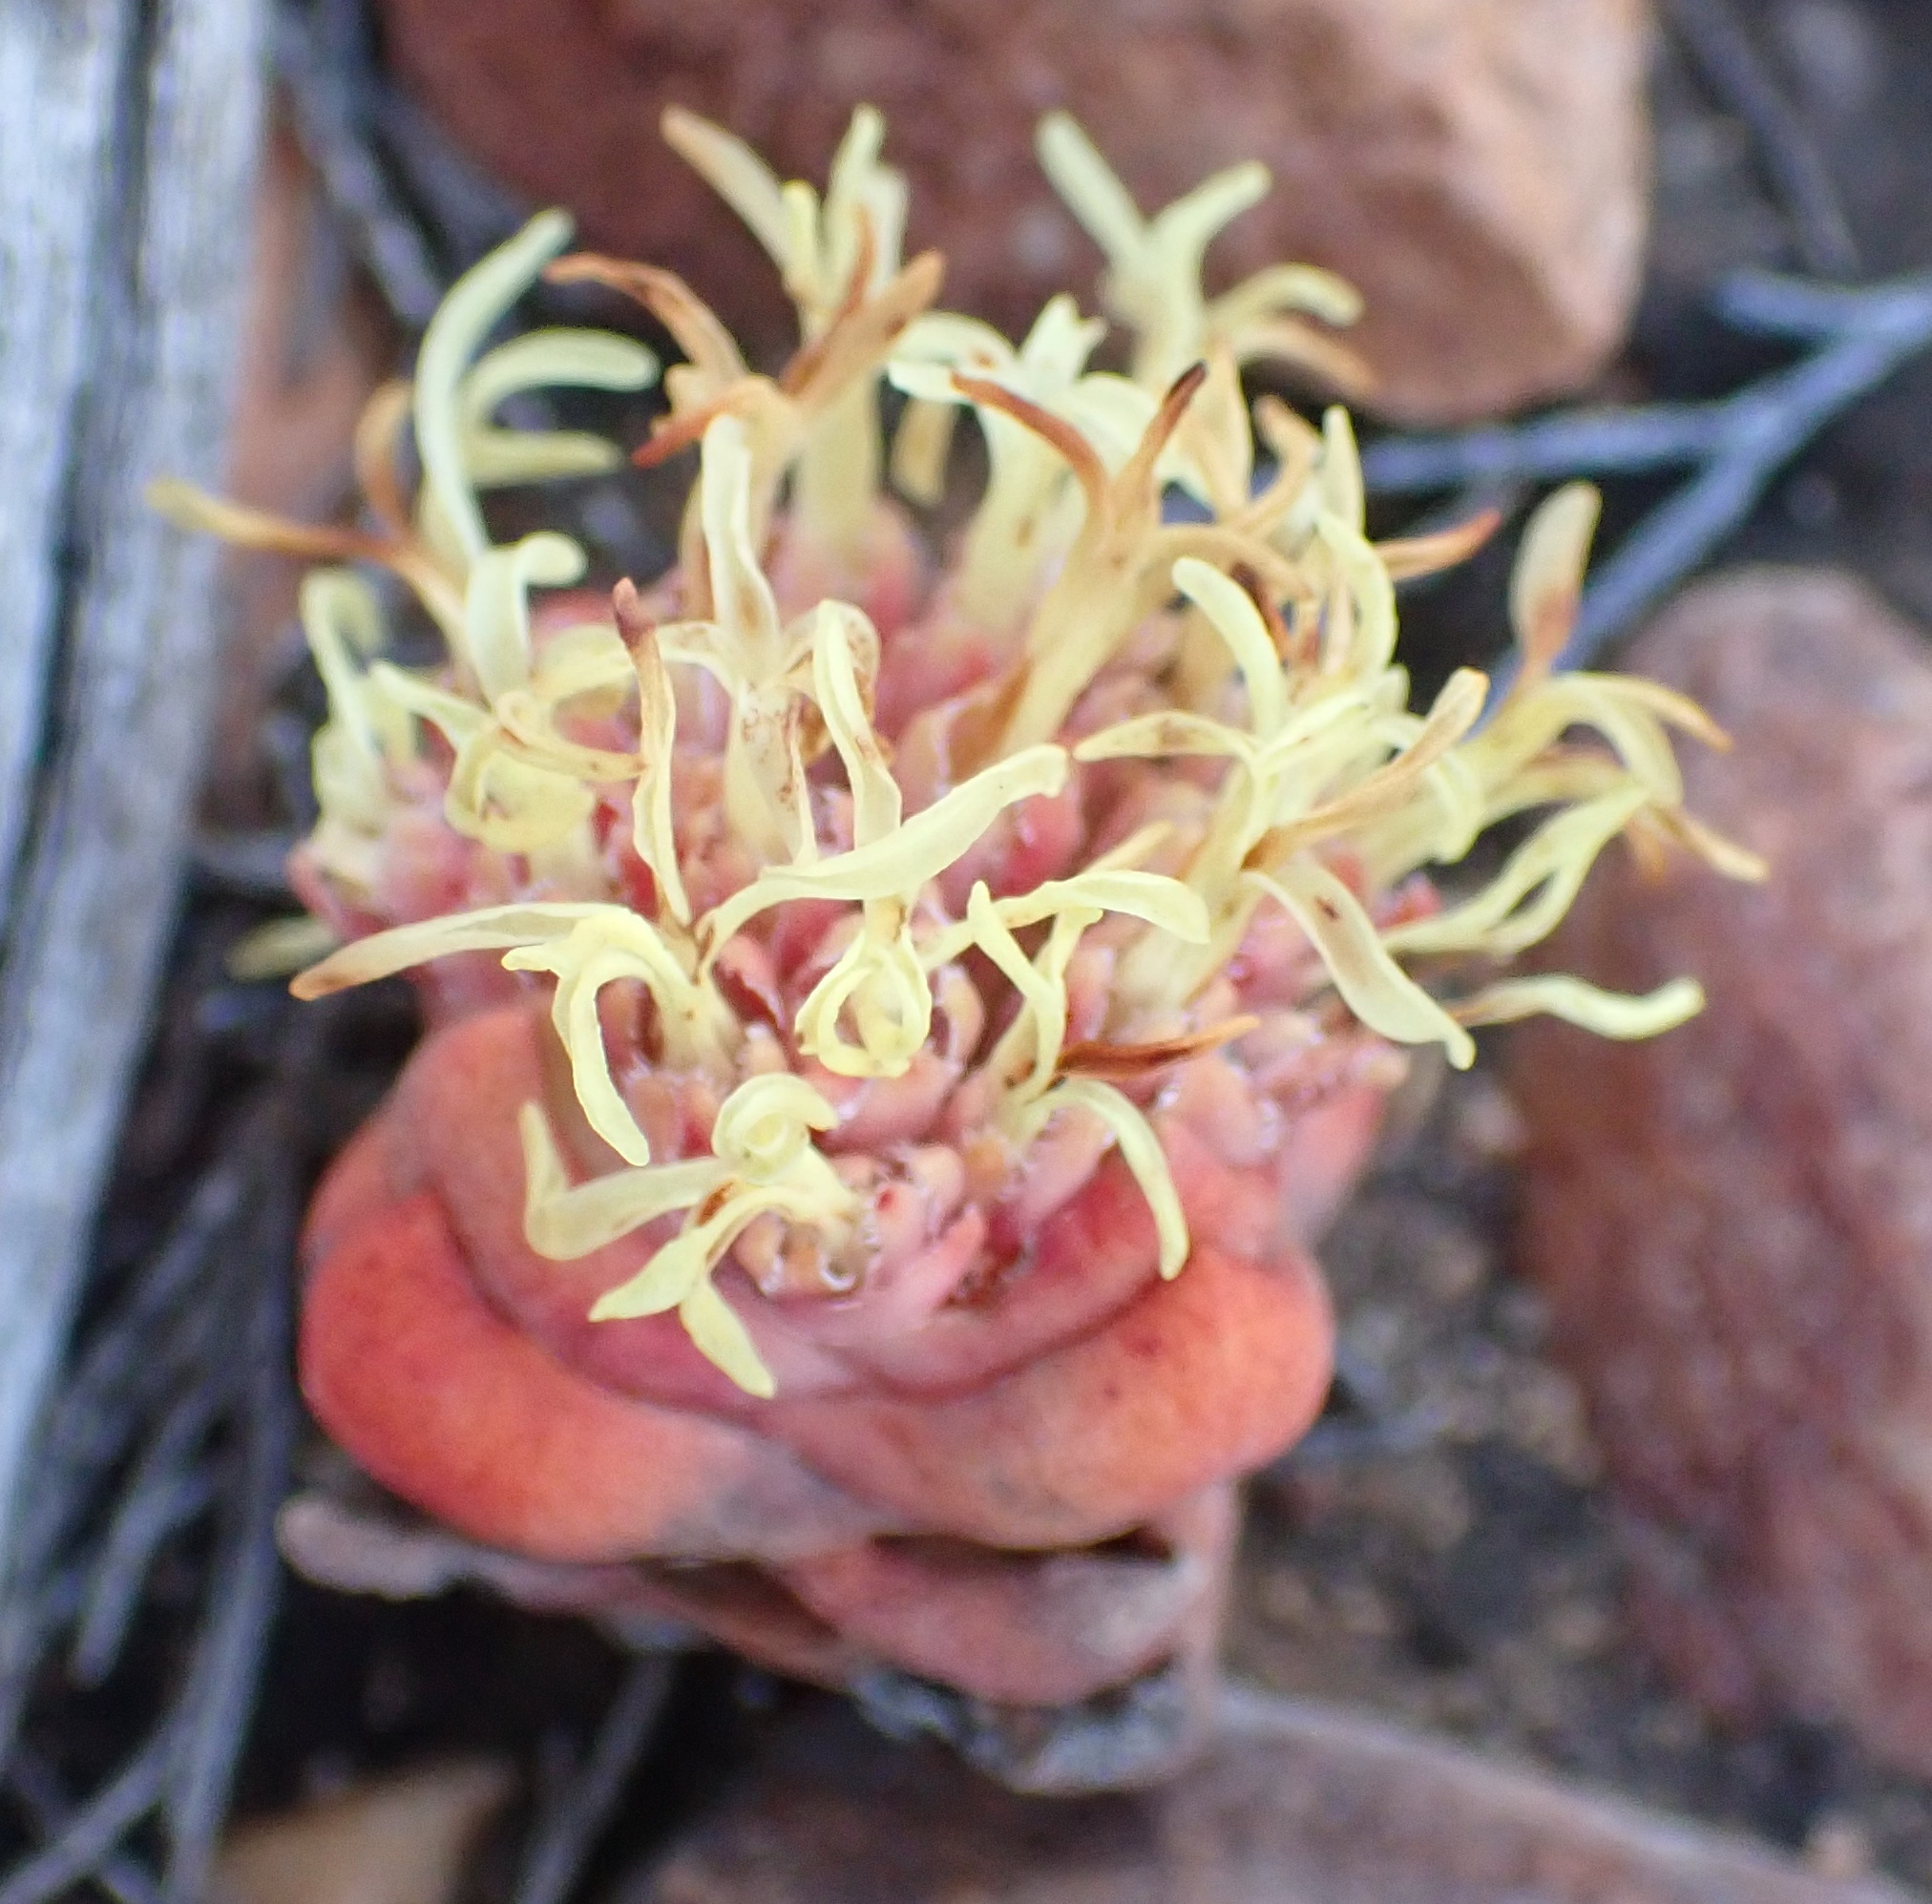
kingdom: Plantae
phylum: Tracheophyta
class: Magnoliopsida
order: Saxifragales
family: Crassulaceae
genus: Crassula
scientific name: Crassula columnaris
